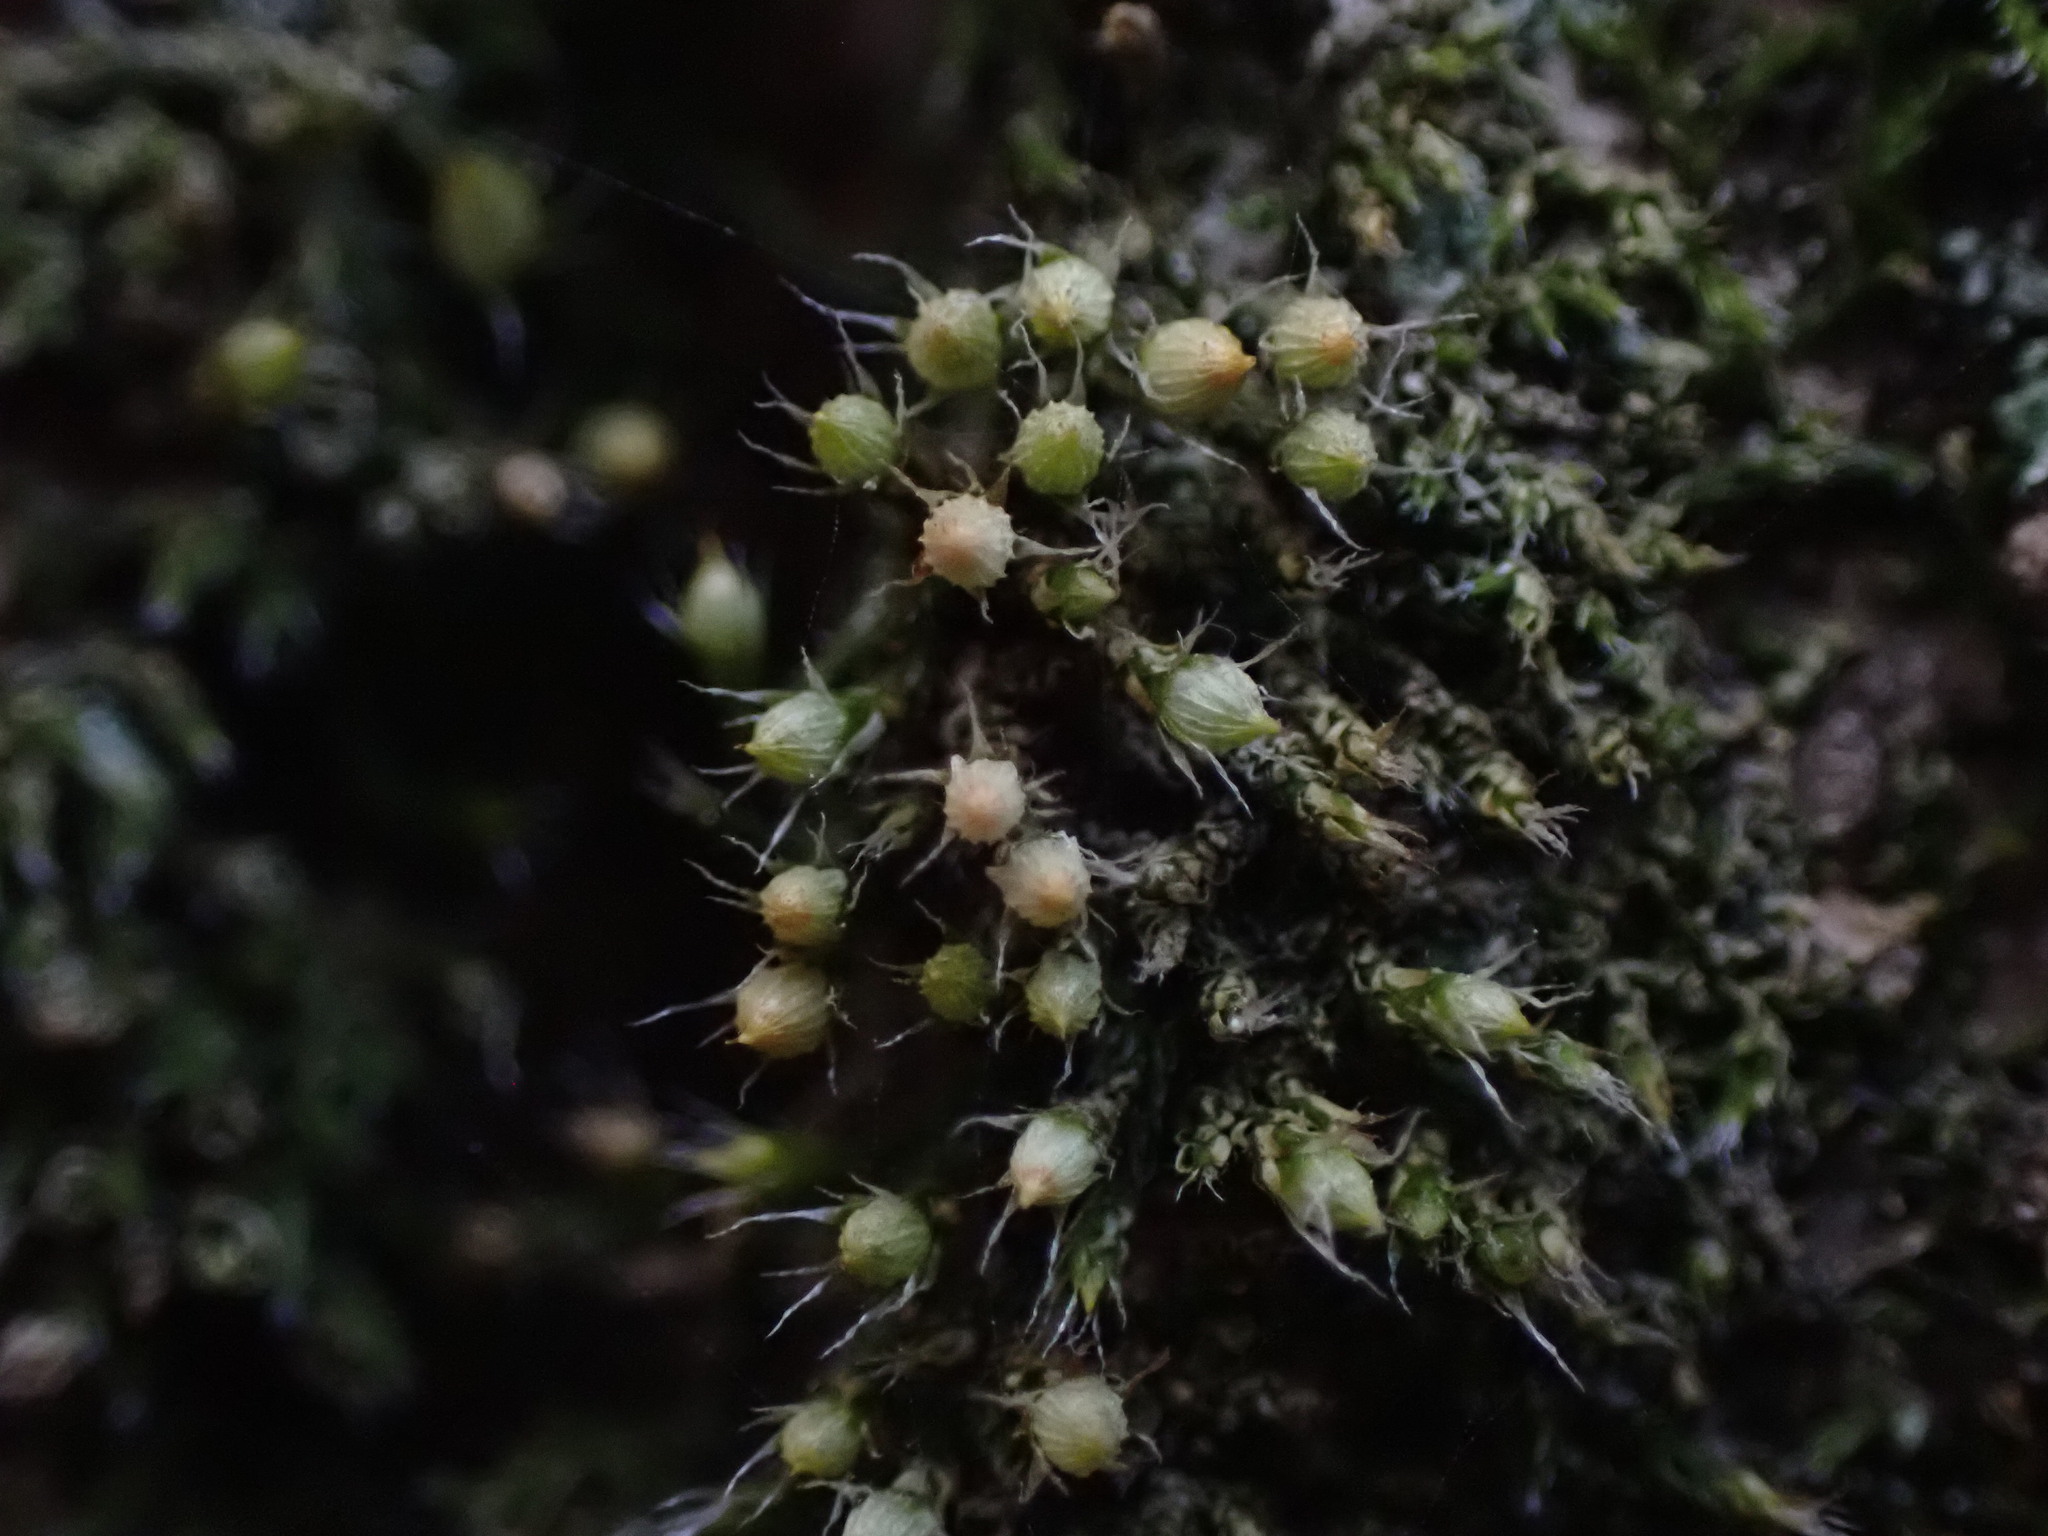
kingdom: Plantae
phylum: Bryophyta
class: Bryopsida
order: Dicranales
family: Erpodiaceae
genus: Venturiella
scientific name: Venturiella sinensis
